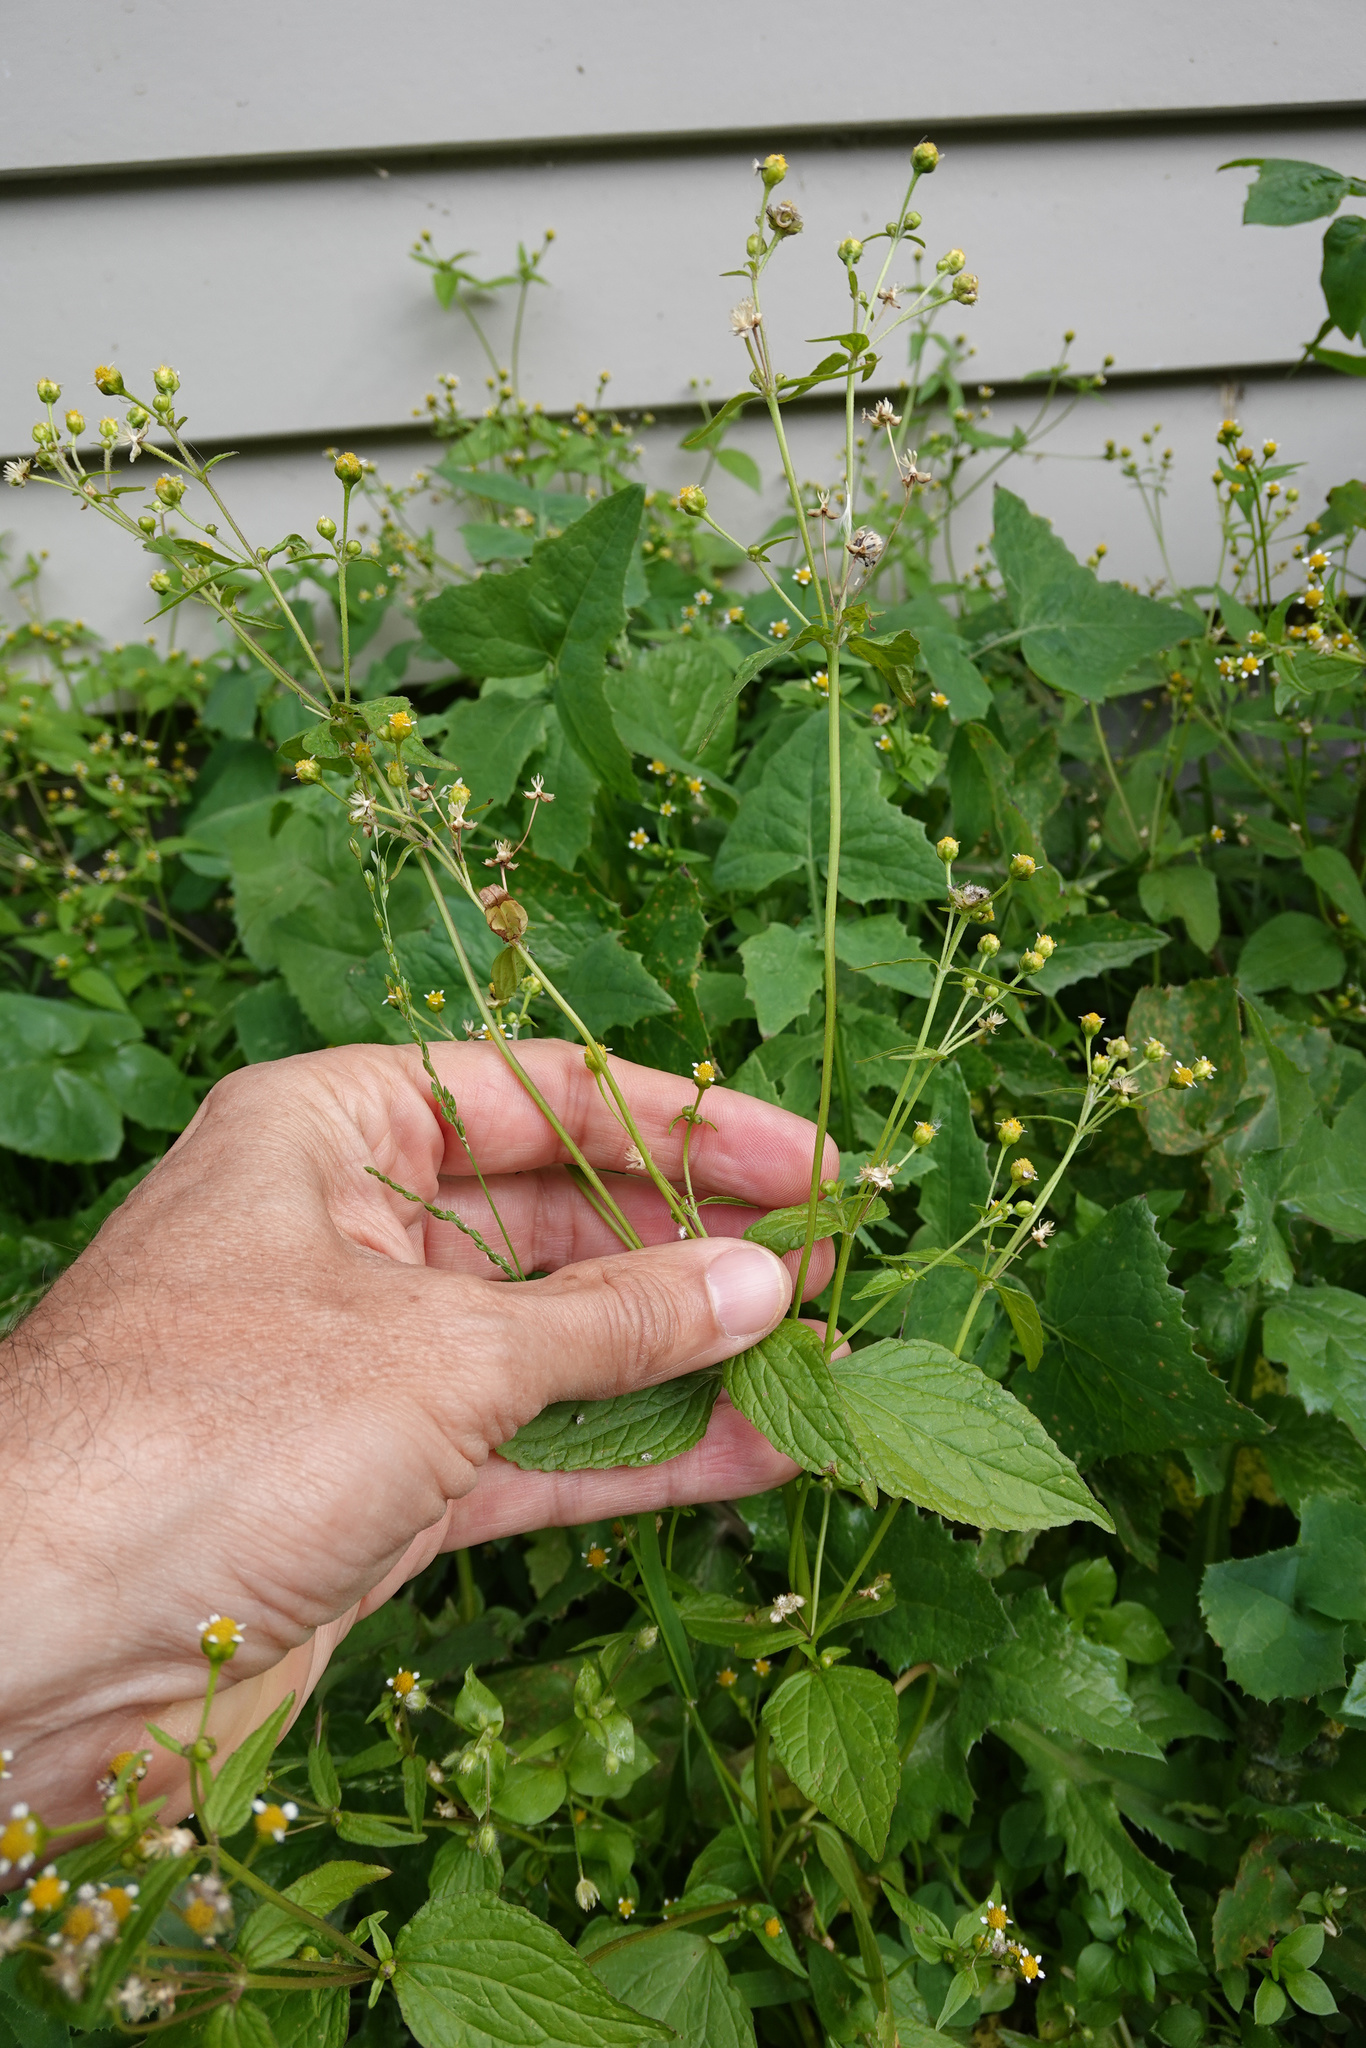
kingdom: Plantae
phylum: Tracheophyta
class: Magnoliopsida
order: Asterales
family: Asteraceae
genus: Galinsoga
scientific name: Galinsoga parviflora
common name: Gallant soldier
